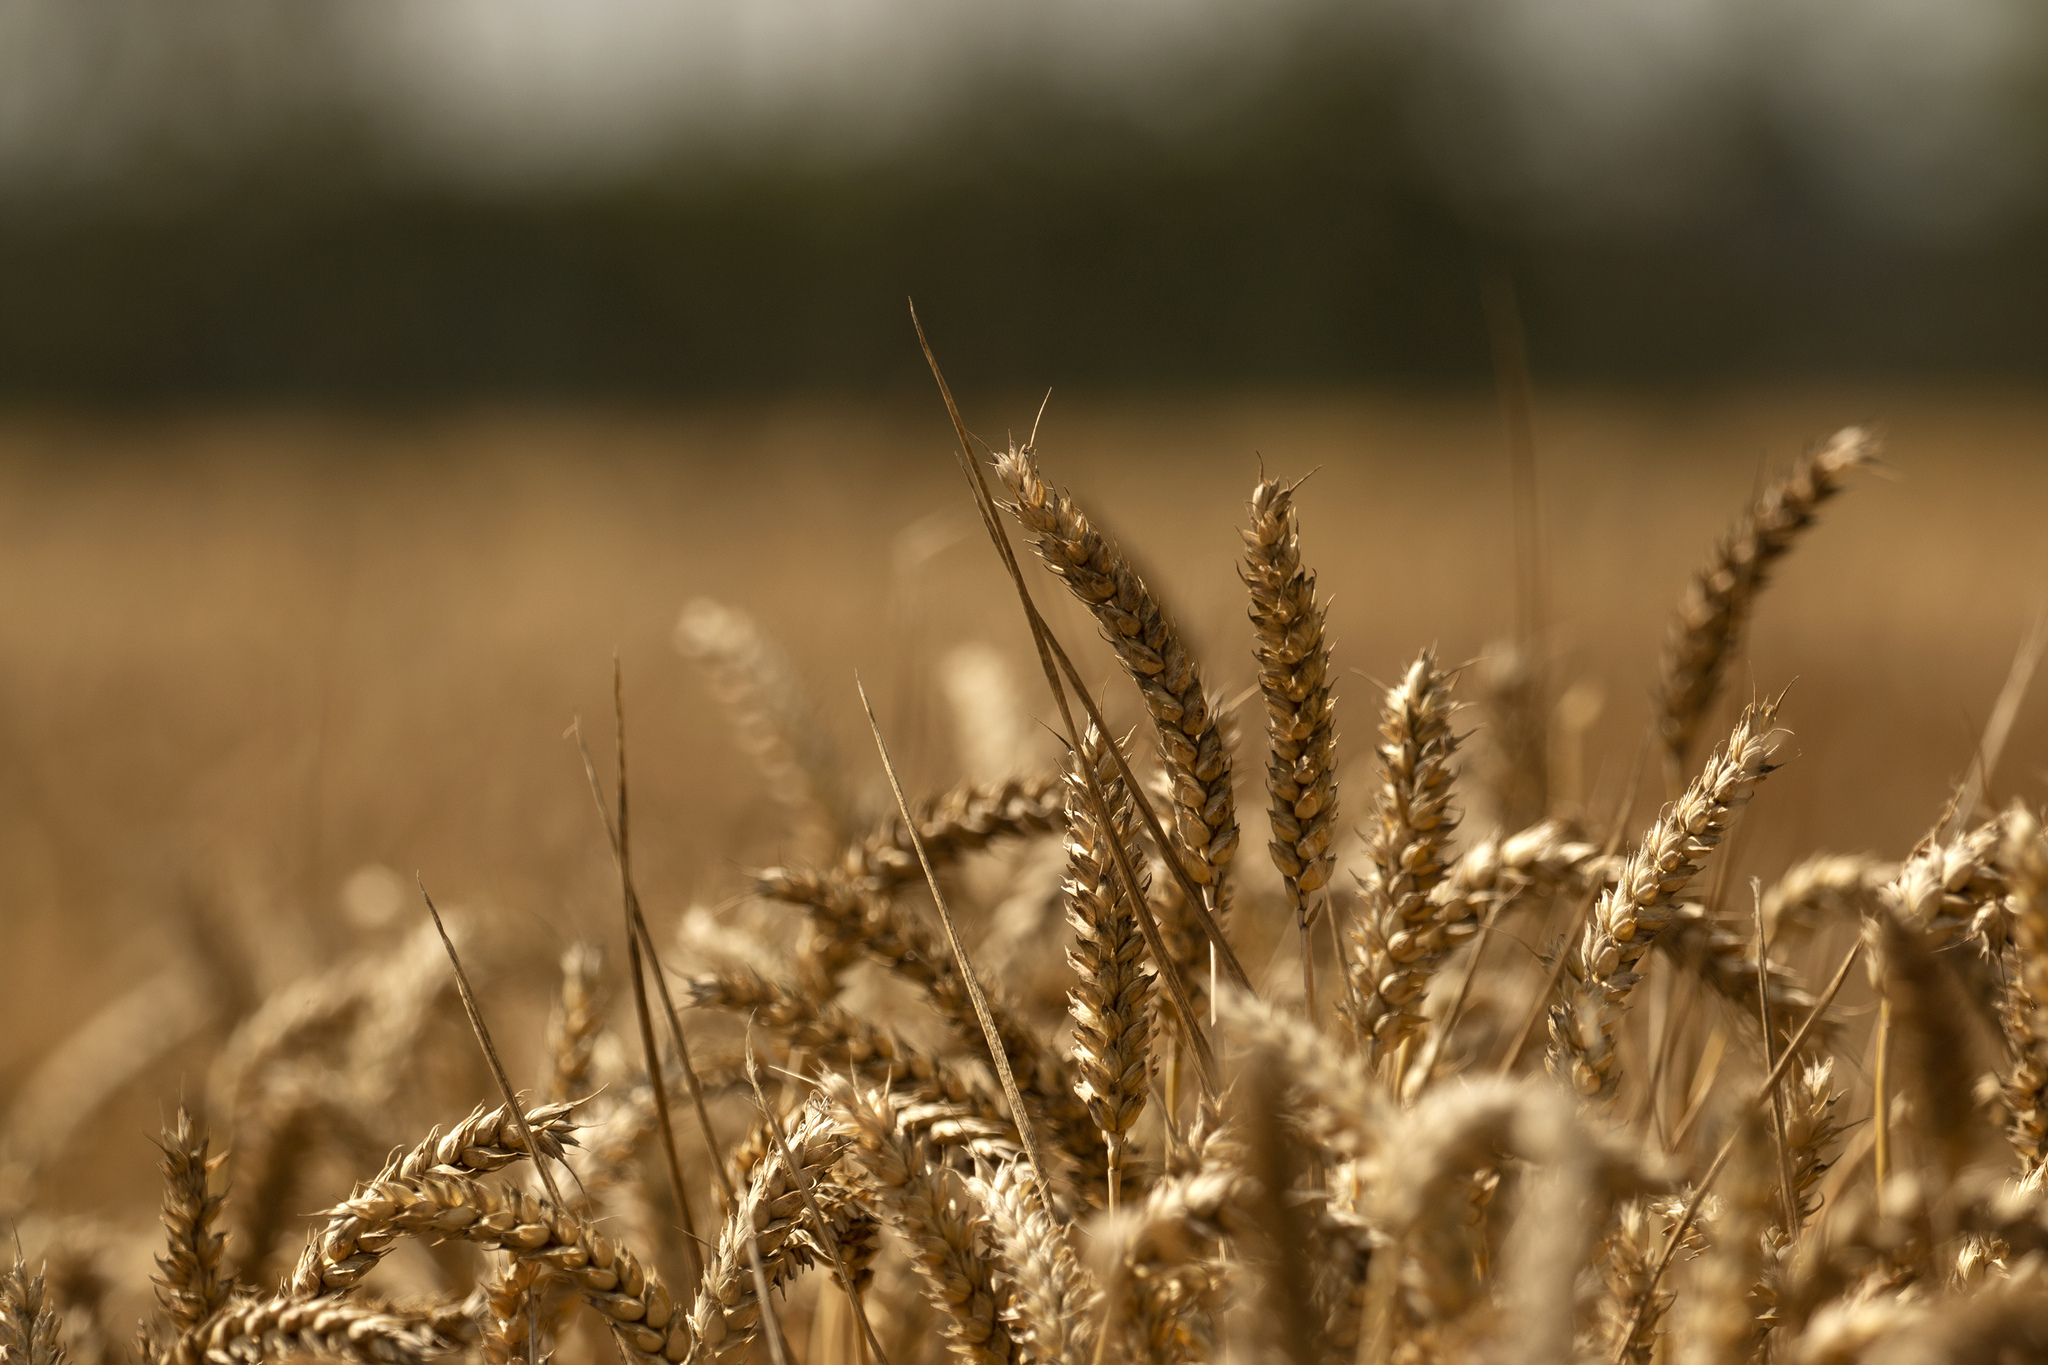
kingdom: Plantae
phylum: Tracheophyta
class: Liliopsida
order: Poales
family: Poaceae
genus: Triticum
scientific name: Triticum aestivum
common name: Common wheat
